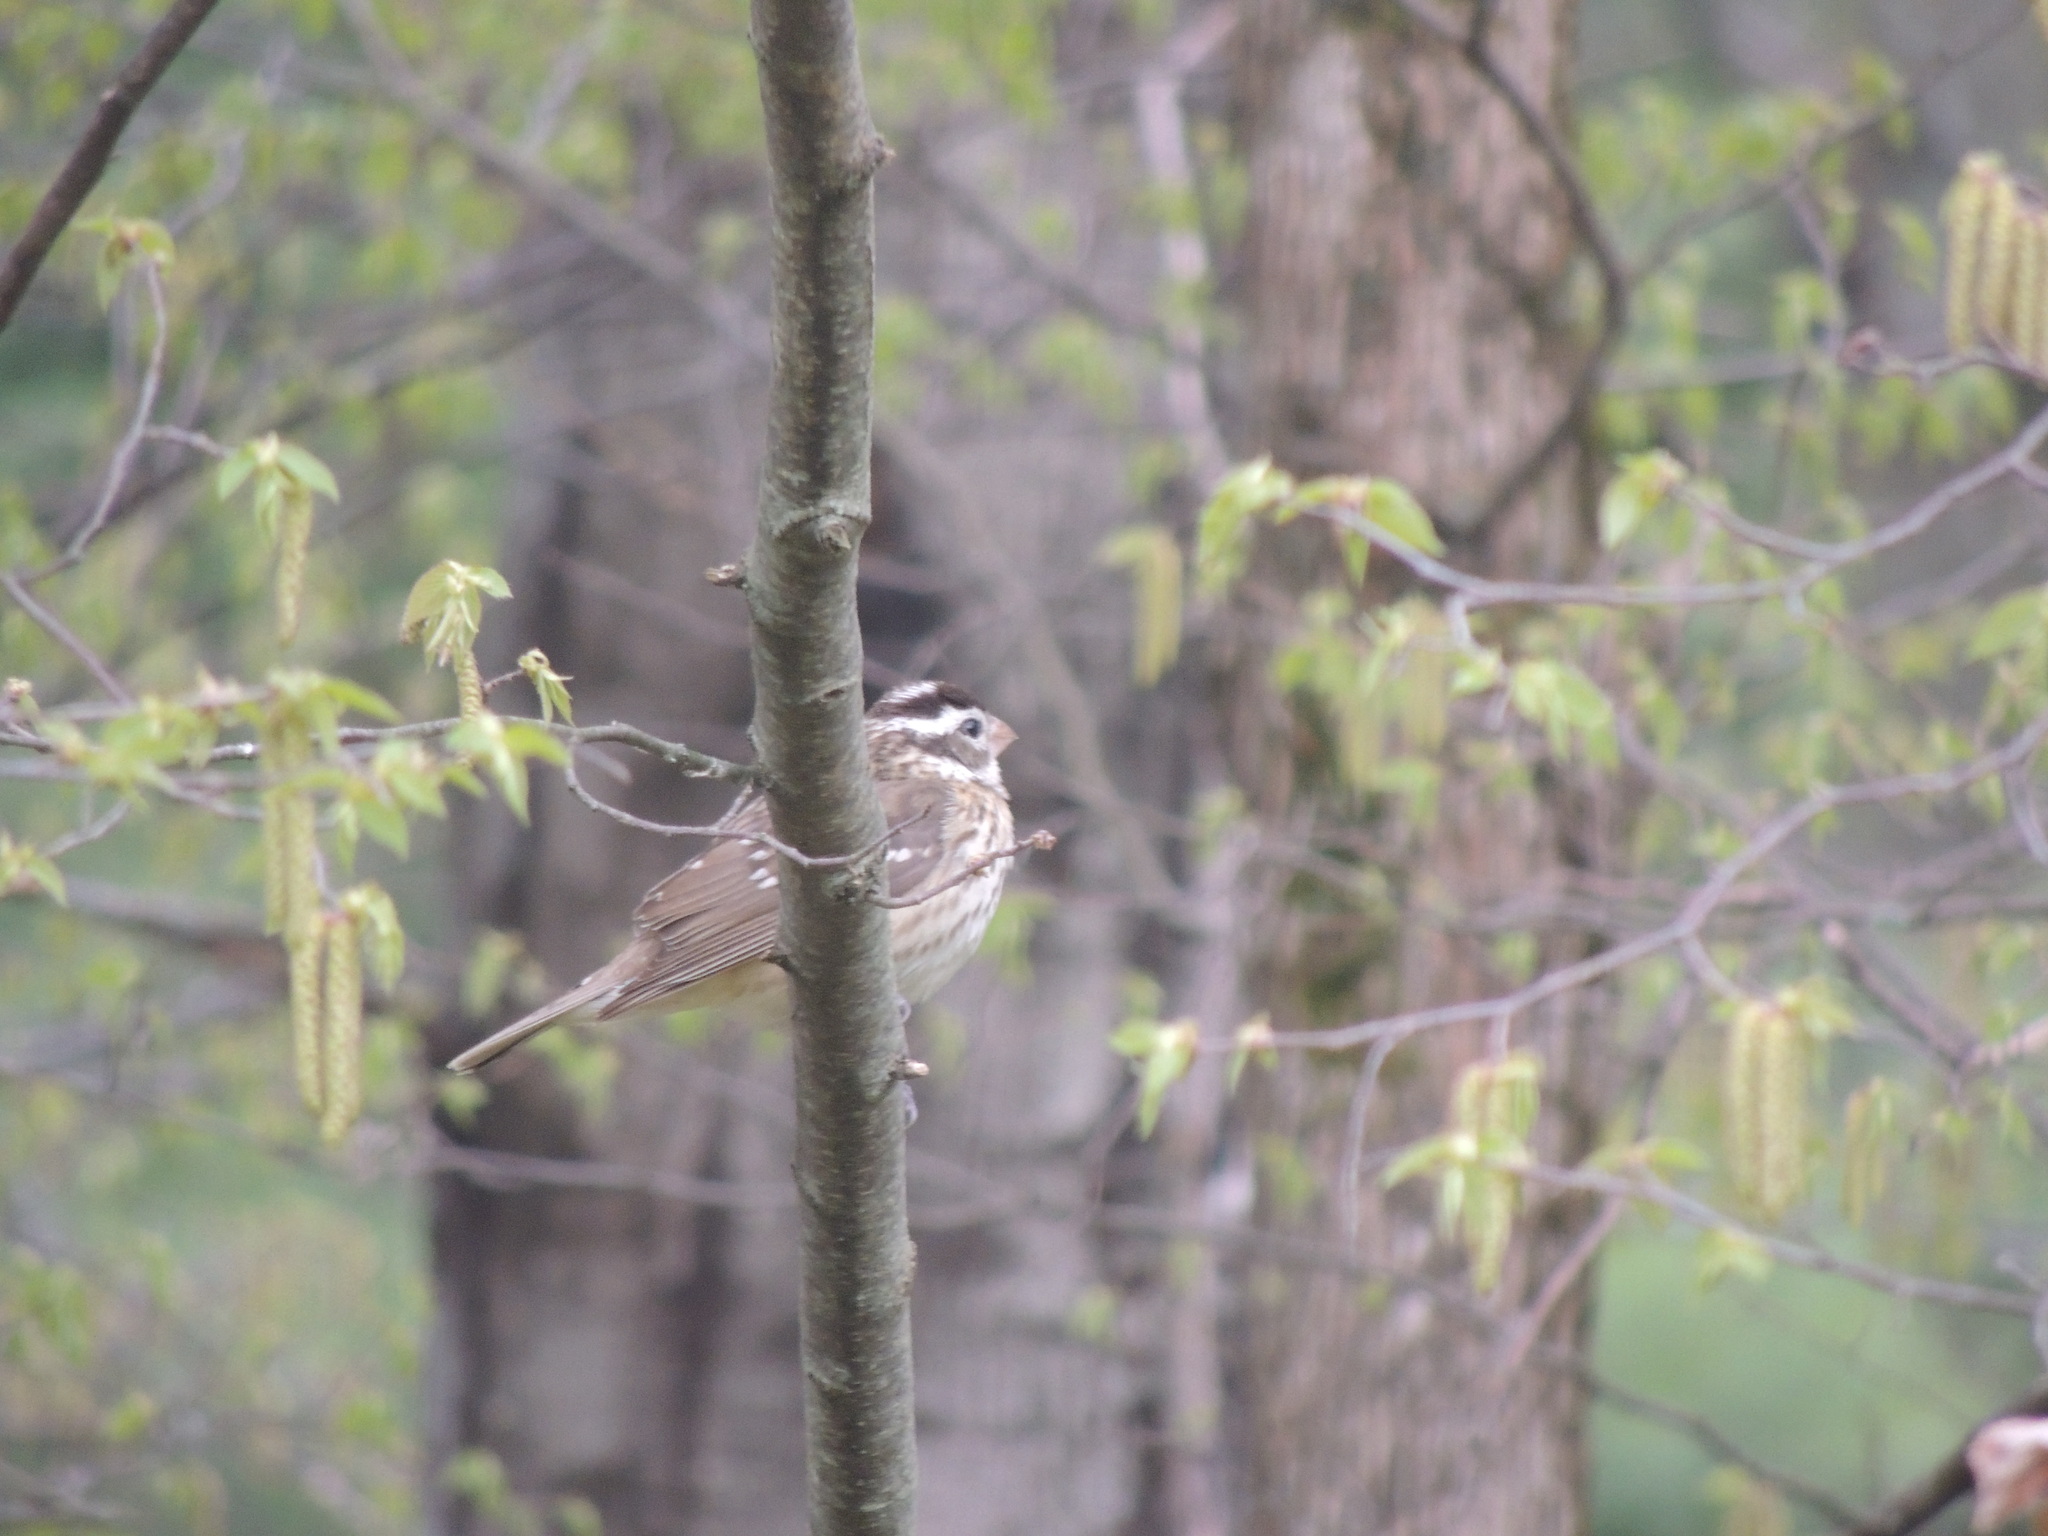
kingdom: Animalia
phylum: Chordata
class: Aves
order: Passeriformes
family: Cardinalidae
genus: Pheucticus
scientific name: Pheucticus ludovicianus
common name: Rose-breasted grosbeak
